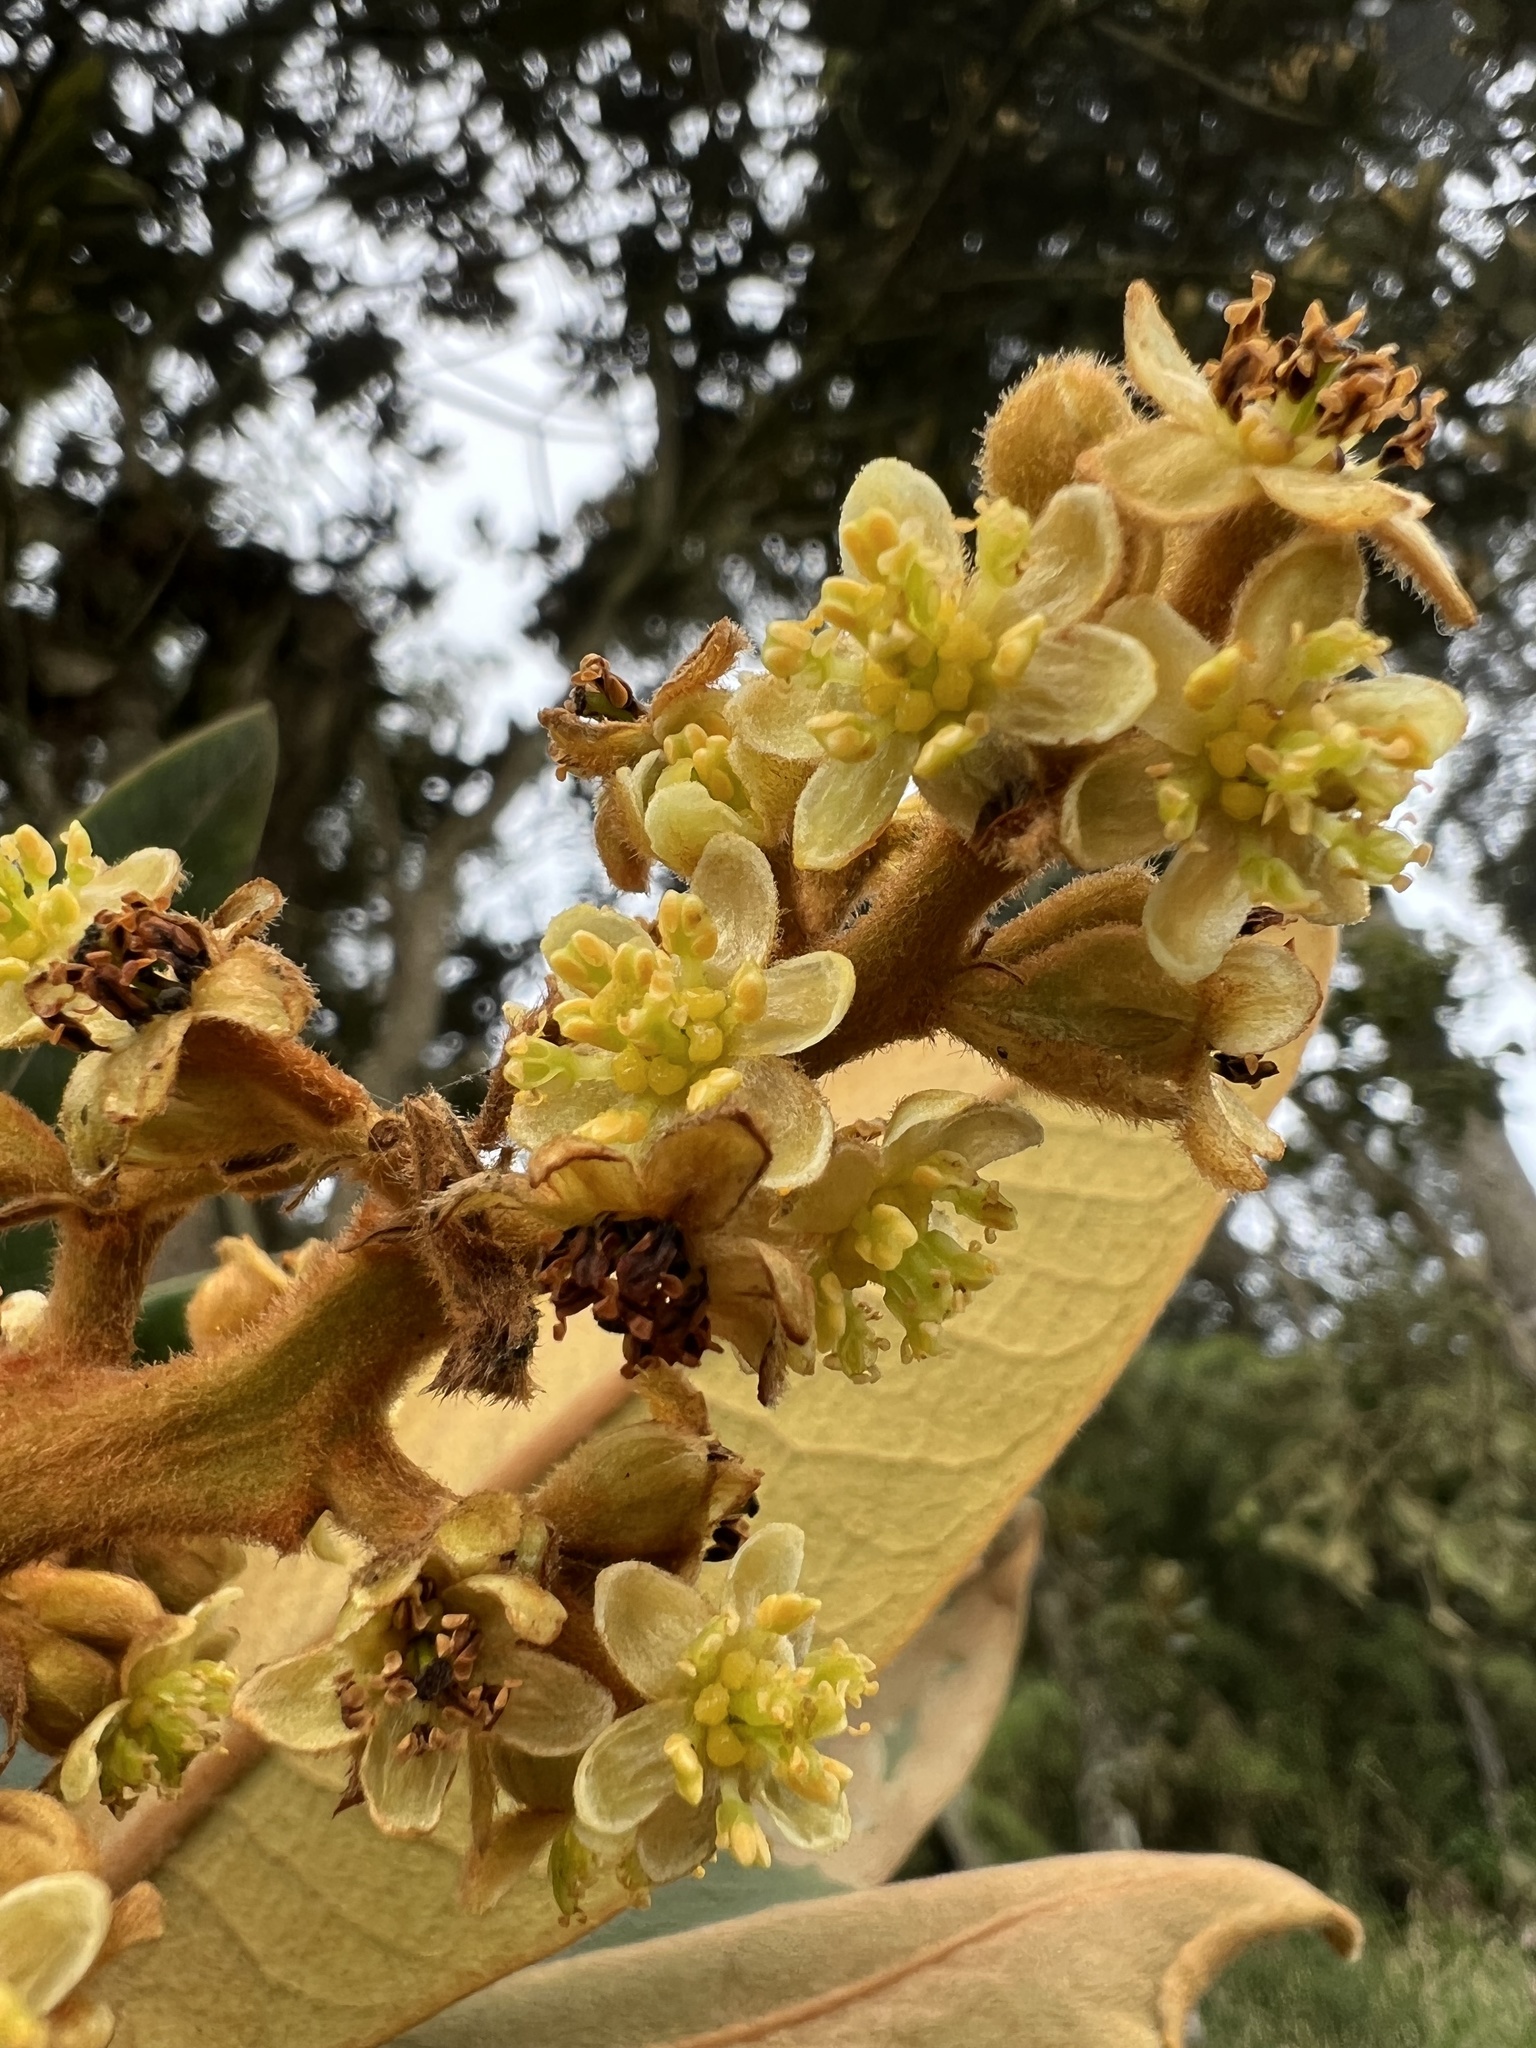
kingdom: Plantae
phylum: Tracheophyta
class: Magnoliopsida
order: Laurales
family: Lauraceae
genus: Andea
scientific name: Andea velutina
